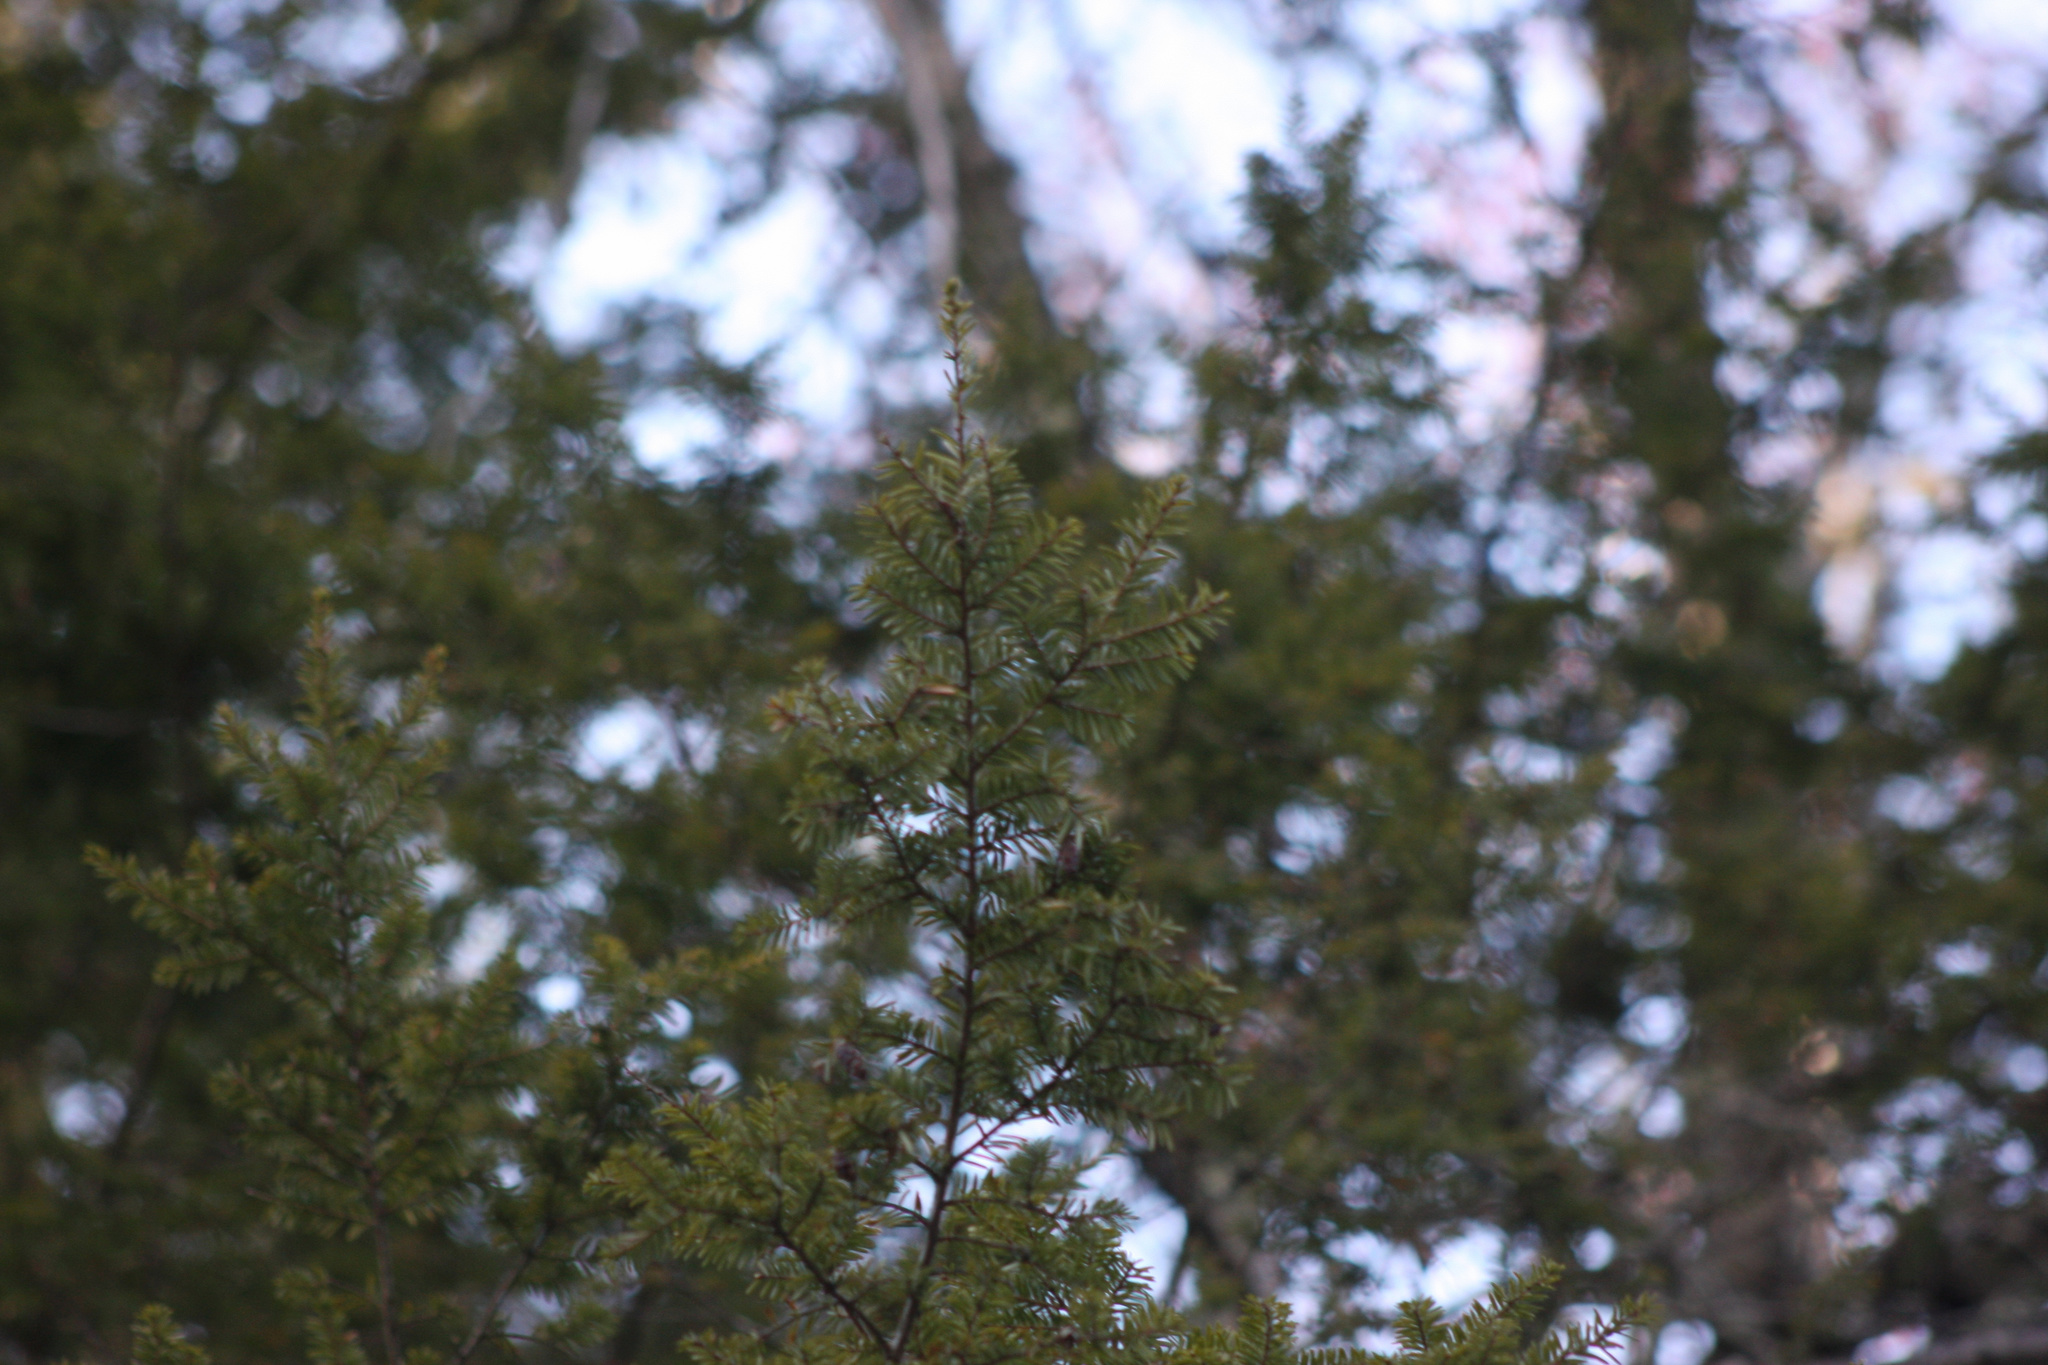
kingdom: Plantae
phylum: Tracheophyta
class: Pinopsida
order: Pinales
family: Pinaceae
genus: Tsuga
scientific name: Tsuga canadensis
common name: Eastern hemlock
